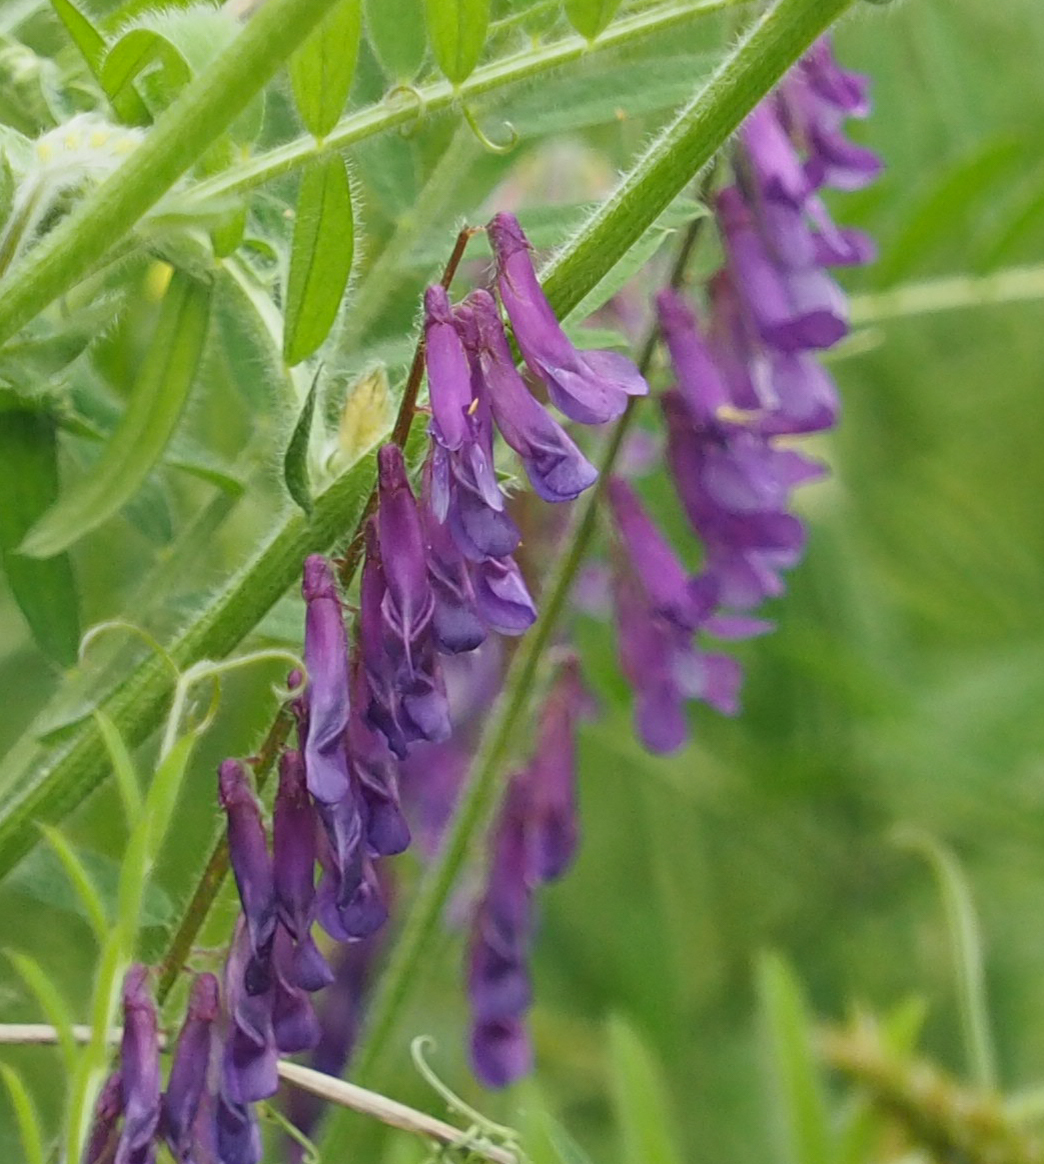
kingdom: Plantae
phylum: Tracheophyta
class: Magnoliopsida
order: Fabales
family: Fabaceae
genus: Vicia
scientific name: Vicia villosa
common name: Fodder vetch
